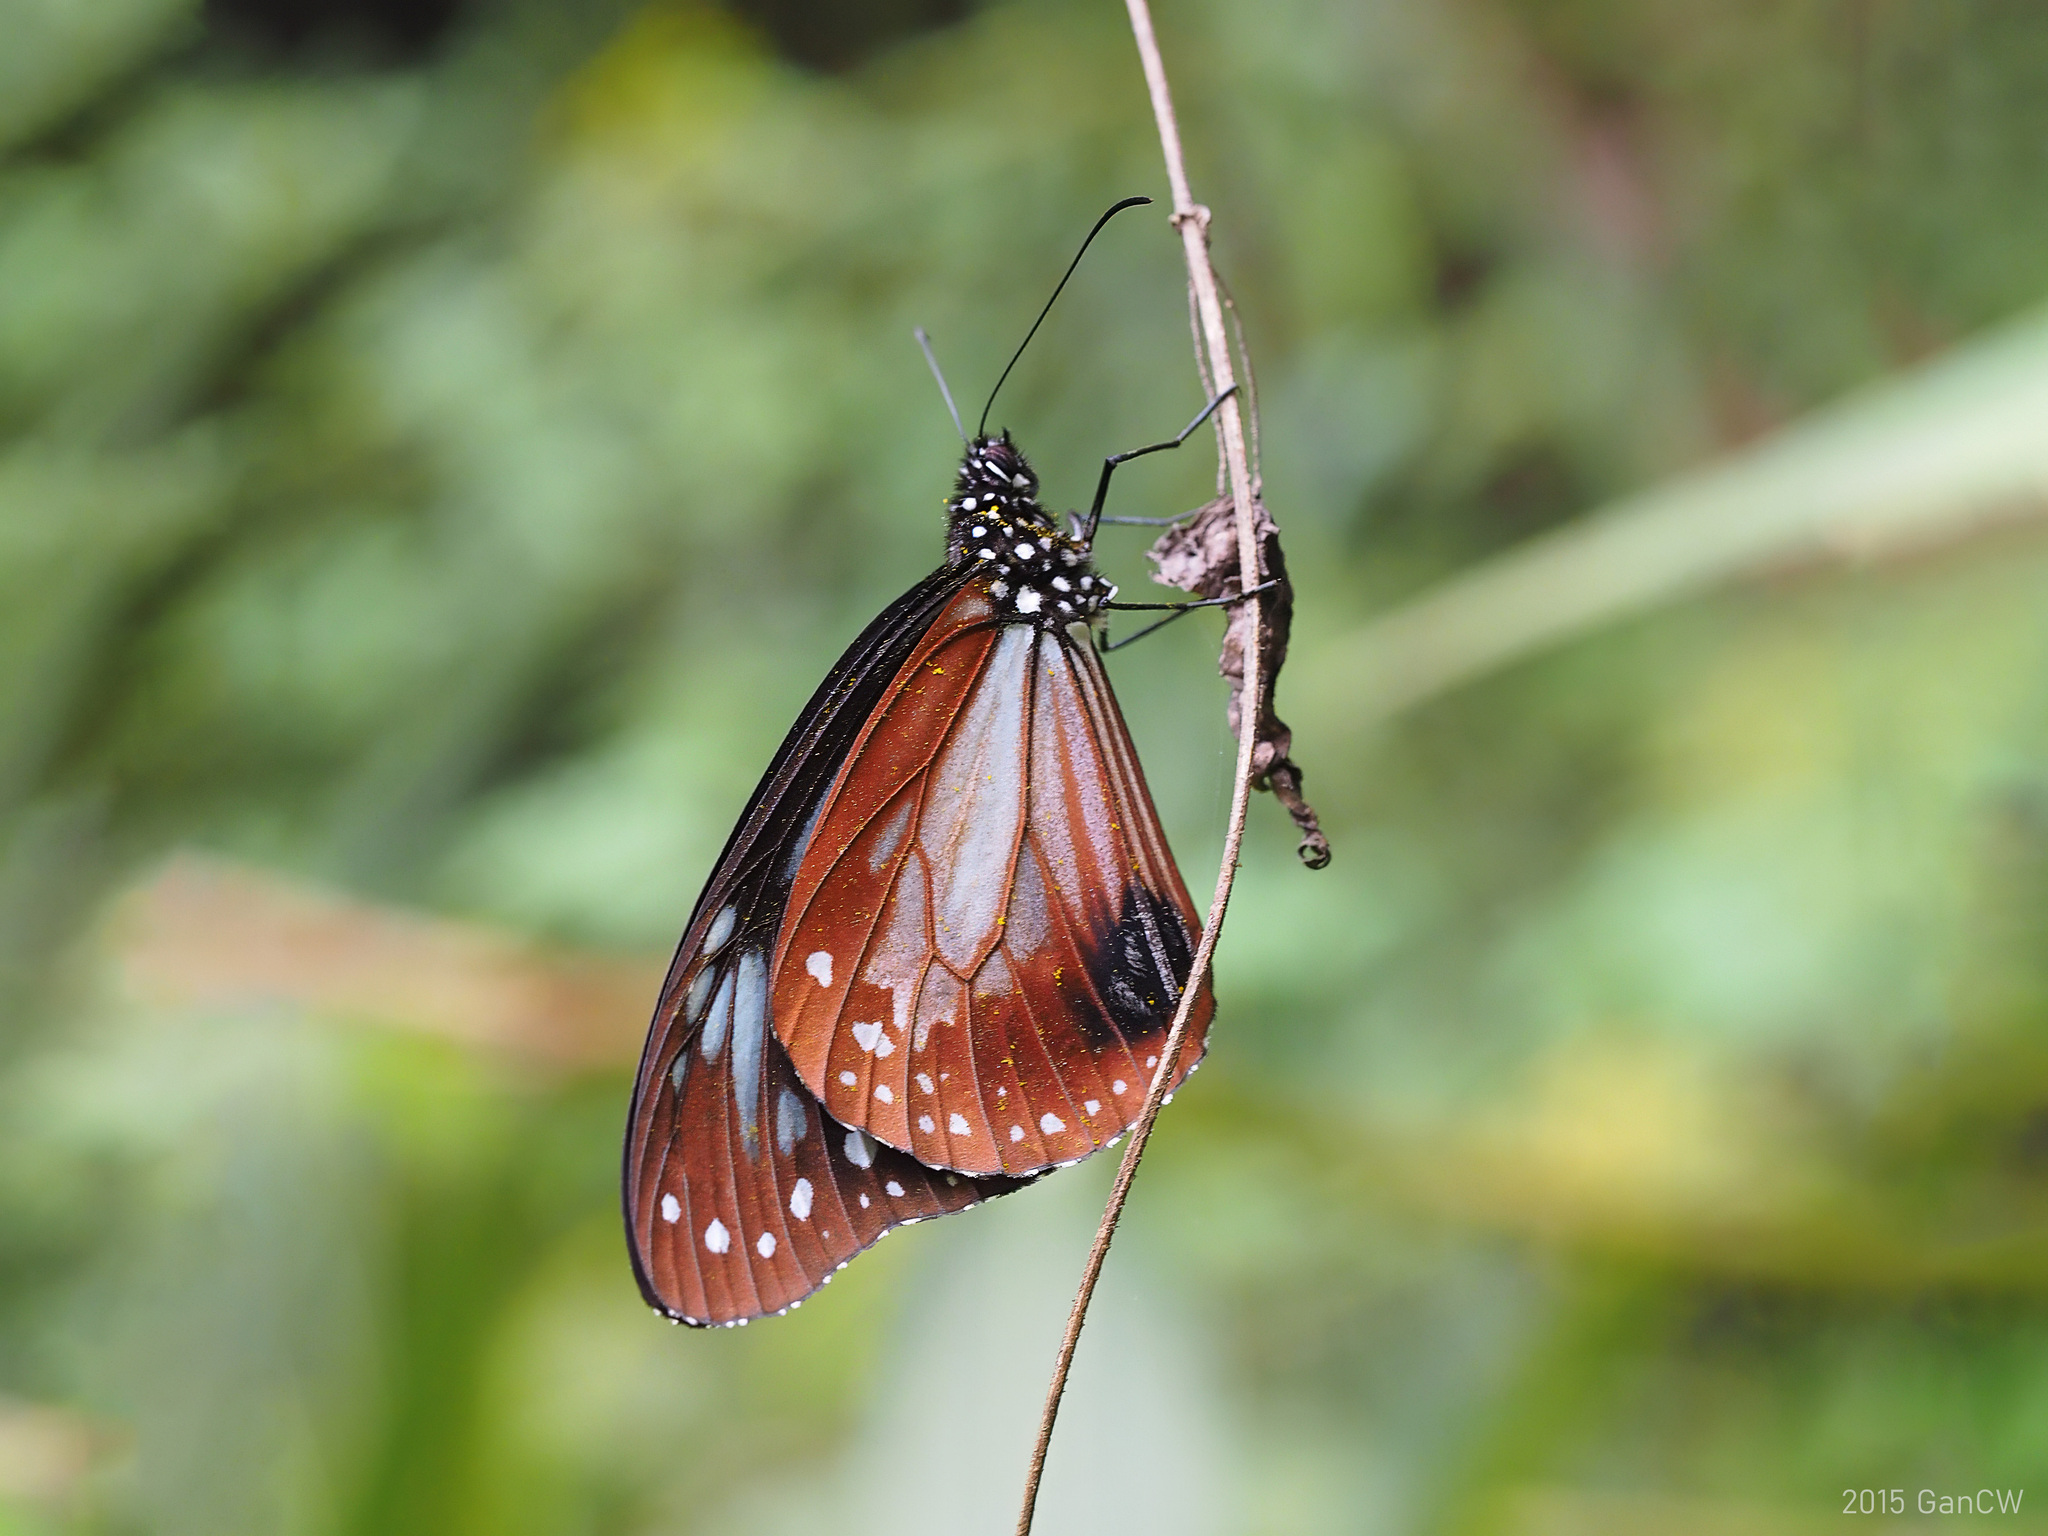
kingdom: Animalia
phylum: Arthropoda
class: Insecta
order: Lepidoptera
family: Nymphalidae
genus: Parantica
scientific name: Parantica sita
